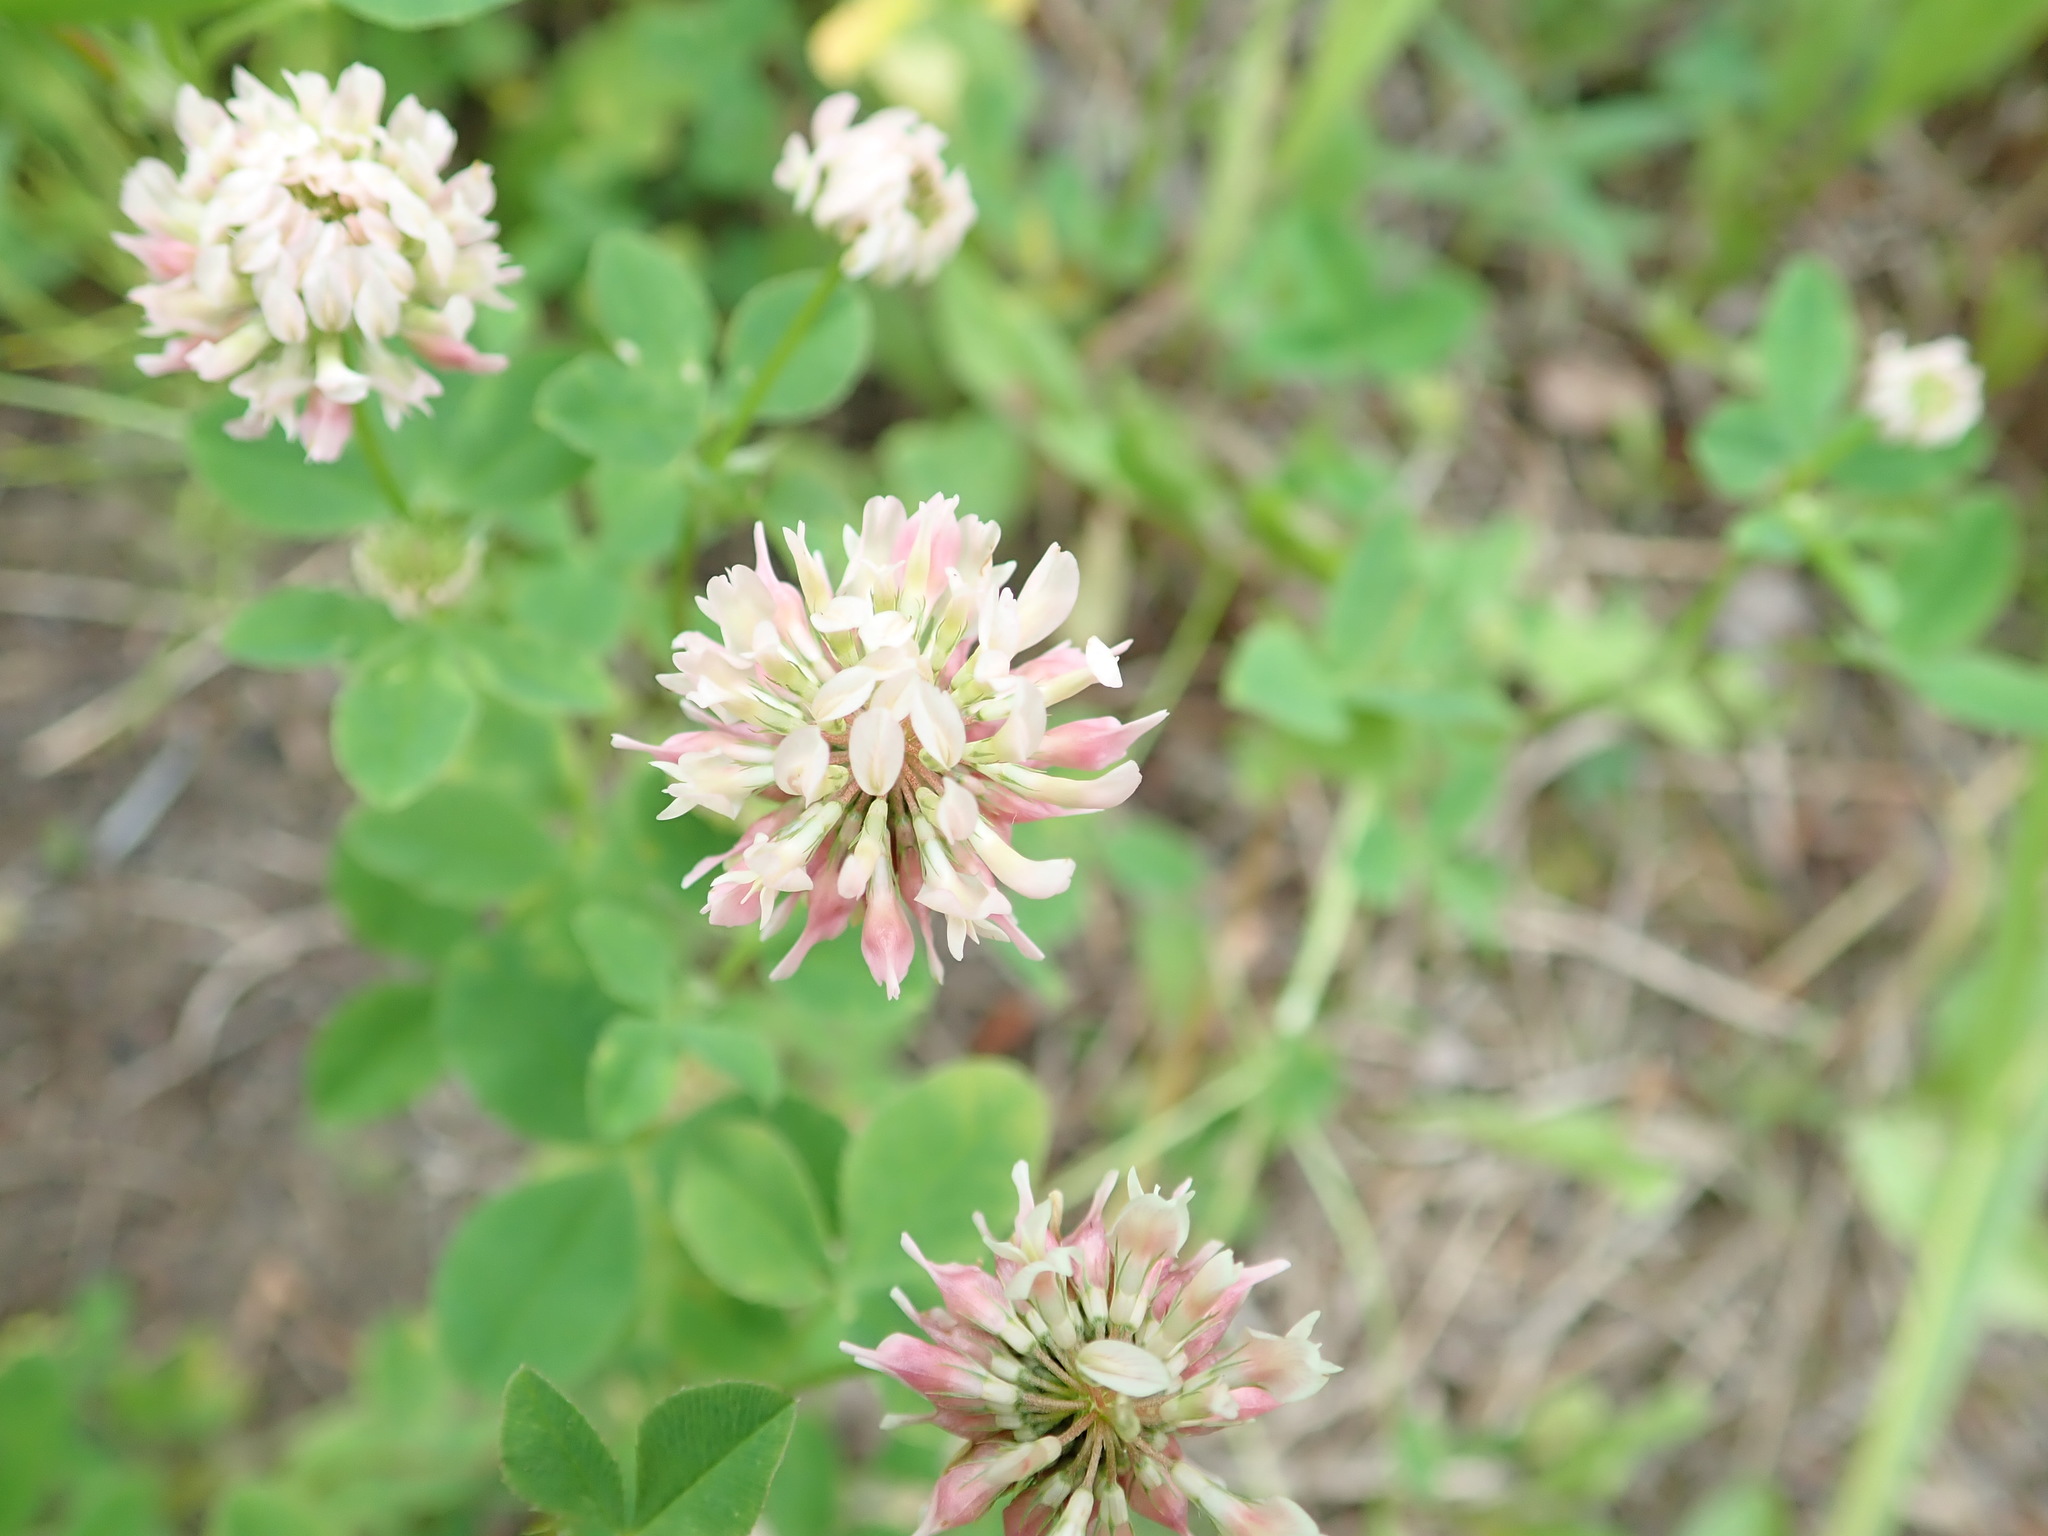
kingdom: Plantae
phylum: Tracheophyta
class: Magnoliopsida
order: Fabales
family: Fabaceae
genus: Trifolium
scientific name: Trifolium hybridum
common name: Alsike clover
